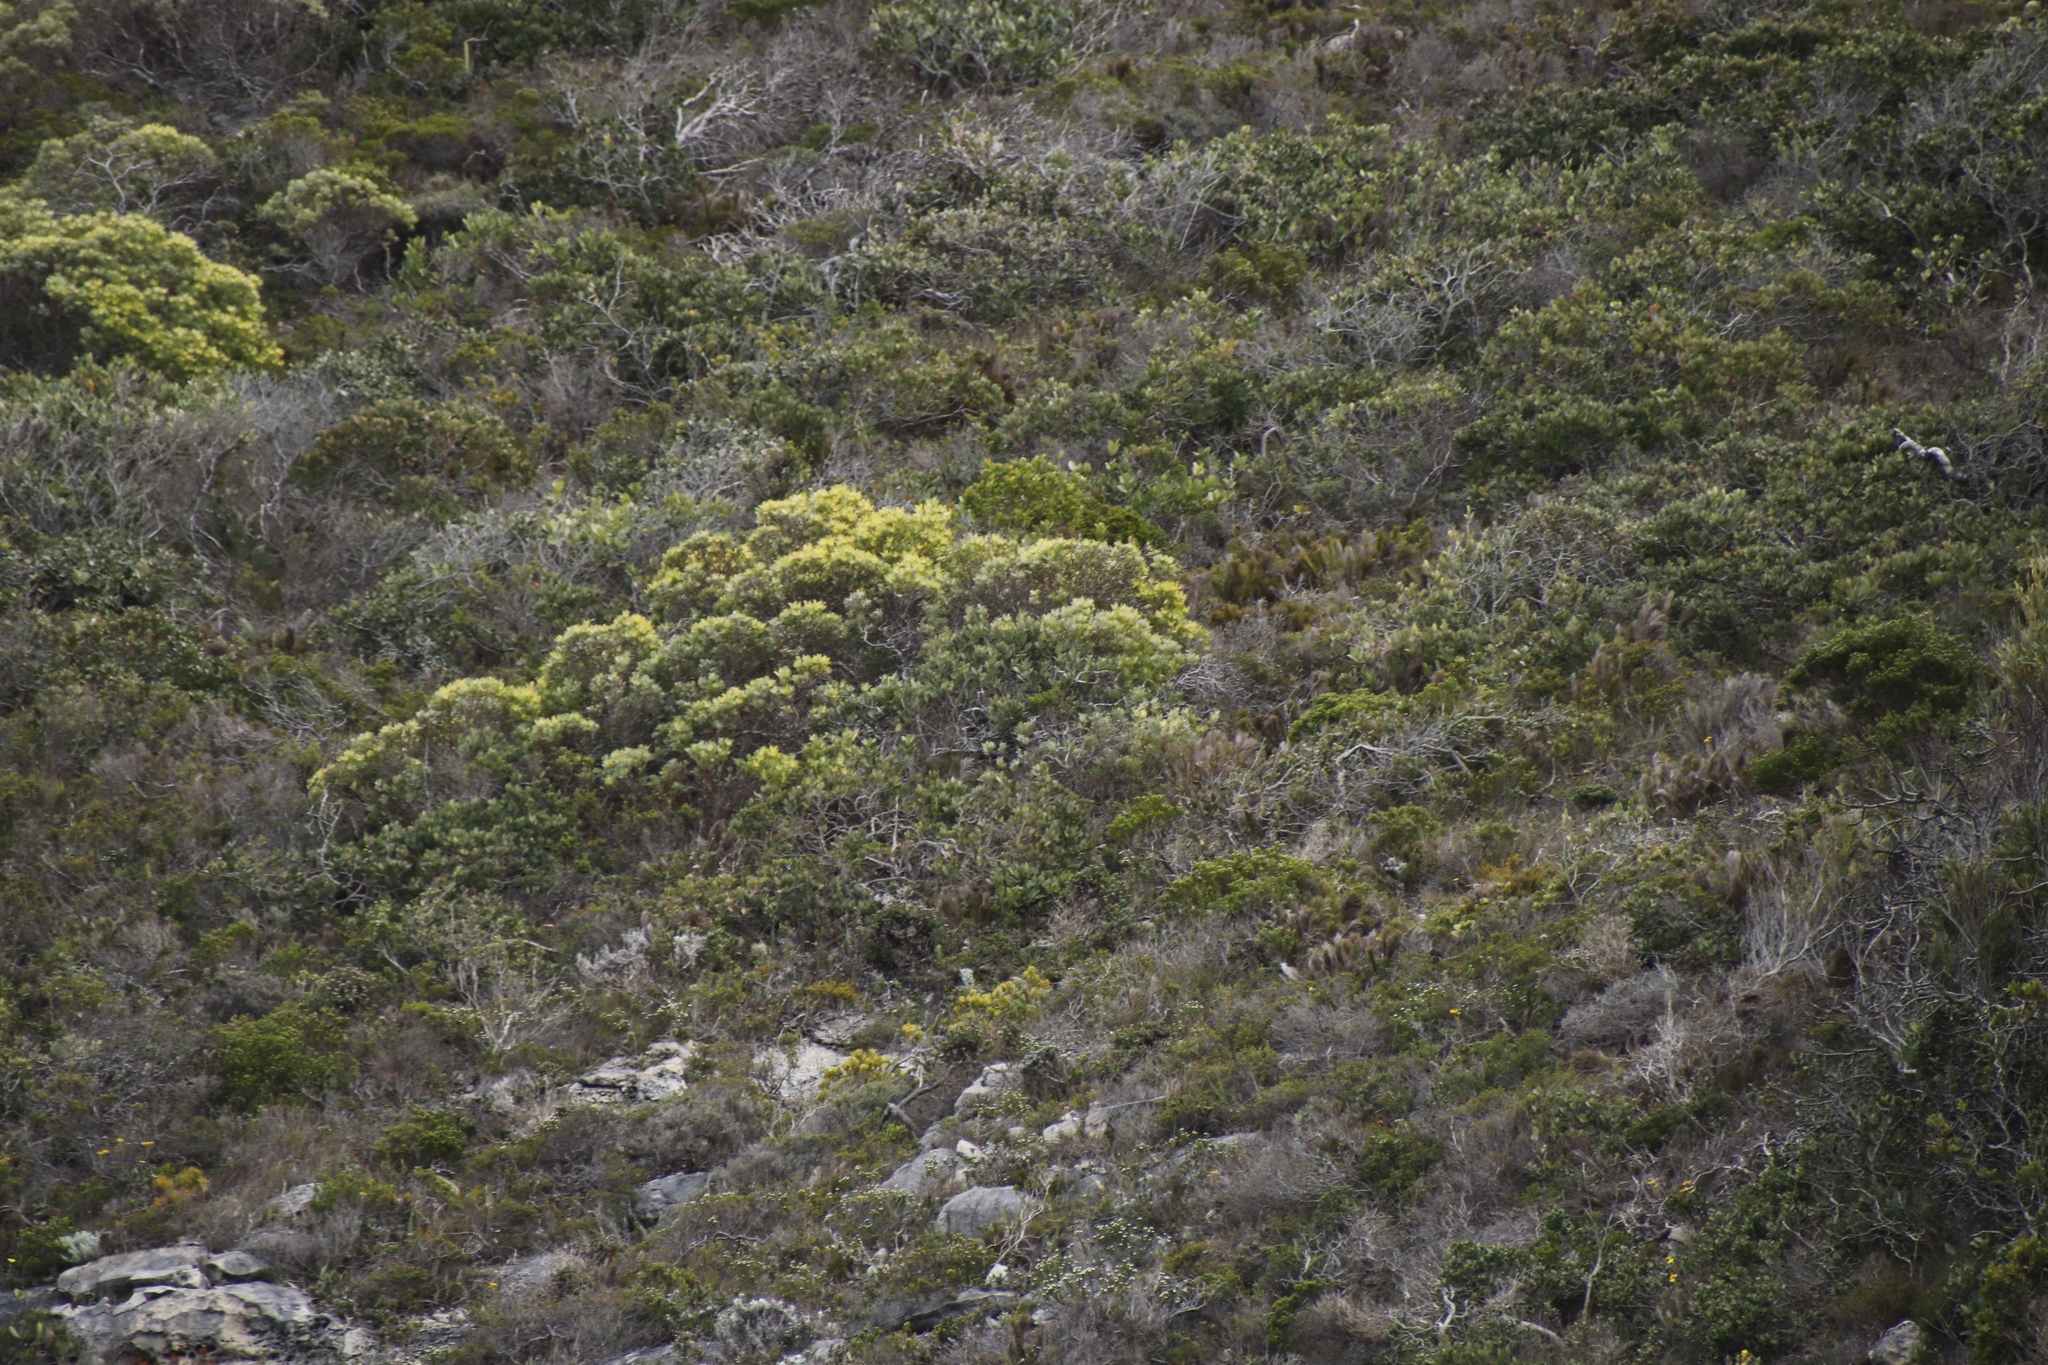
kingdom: Plantae
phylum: Tracheophyta
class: Magnoliopsida
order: Proteales
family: Proteaceae
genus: Leucadendron
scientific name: Leucadendron meridianum
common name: Limestone conebush
